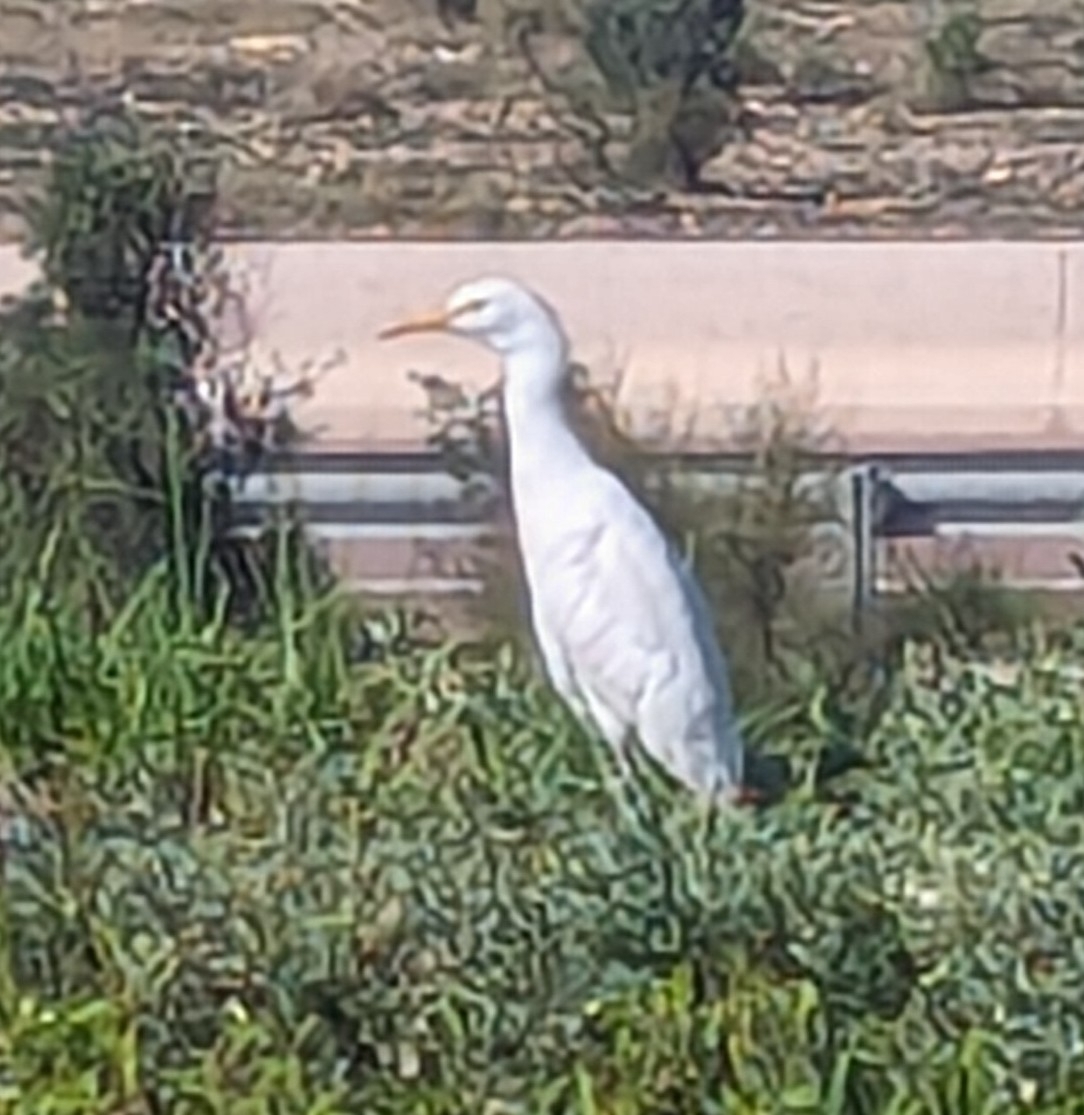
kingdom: Animalia
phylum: Chordata
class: Aves
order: Pelecaniformes
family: Ardeidae
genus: Bubulcus
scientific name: Bubulcus ibis
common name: Cattle egret
